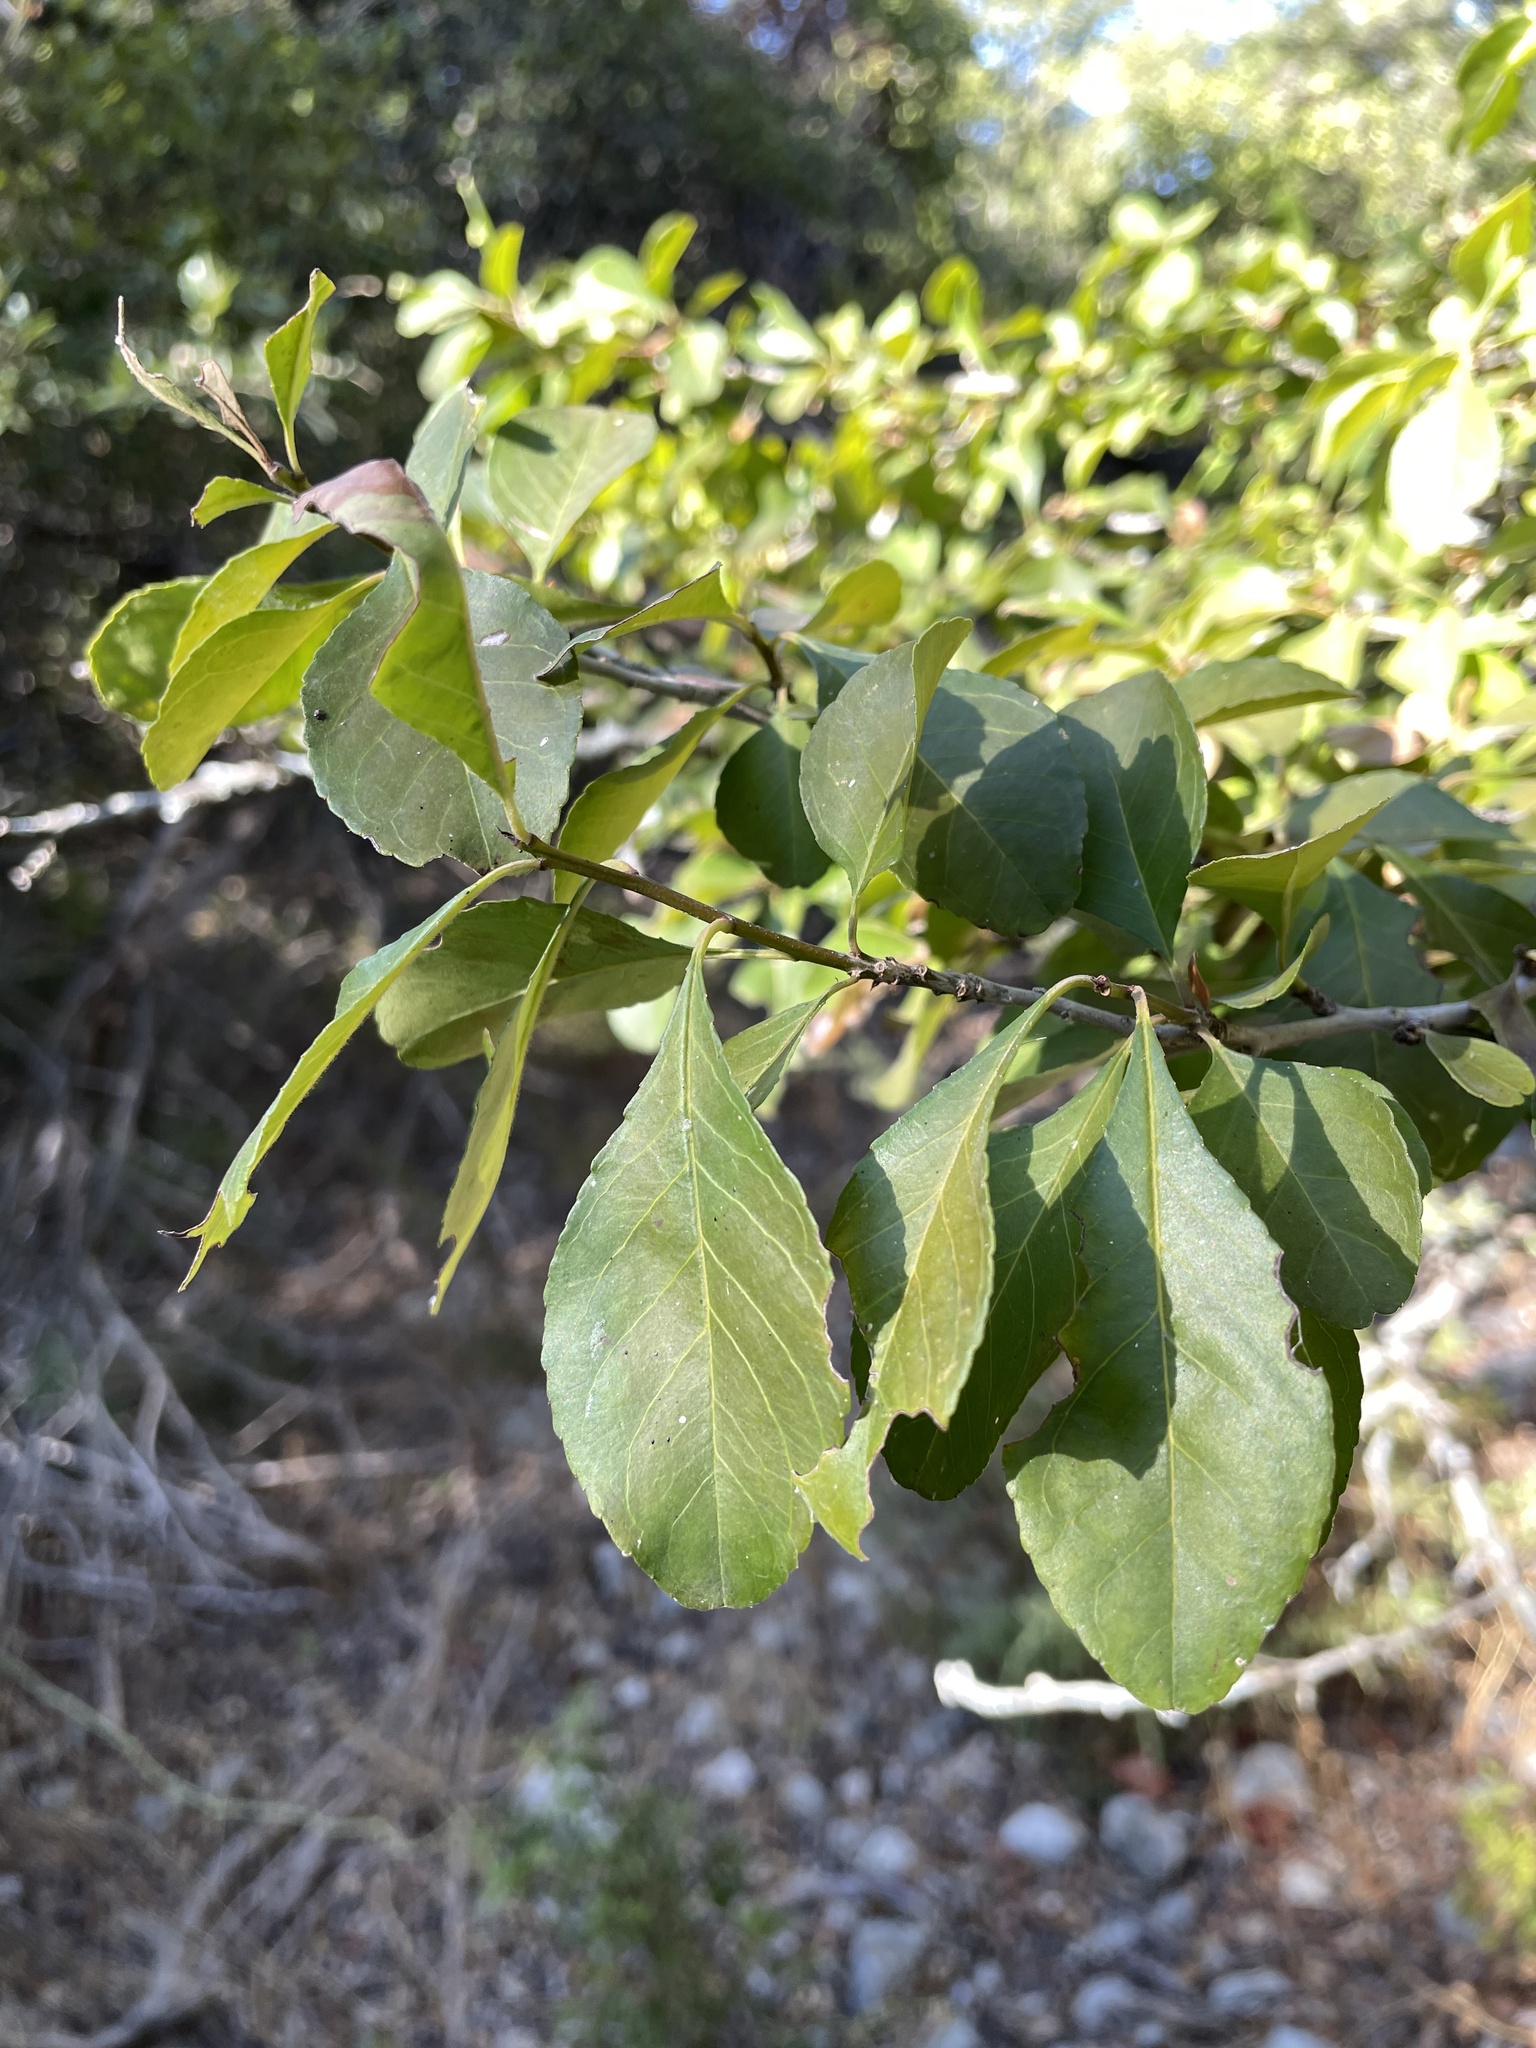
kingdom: Plantae
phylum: Tracheophyta
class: Magnoliopsida
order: Aquifoliales
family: Aquifoliaceae
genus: Ilex
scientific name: Ilex decidua
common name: Possum-haw
